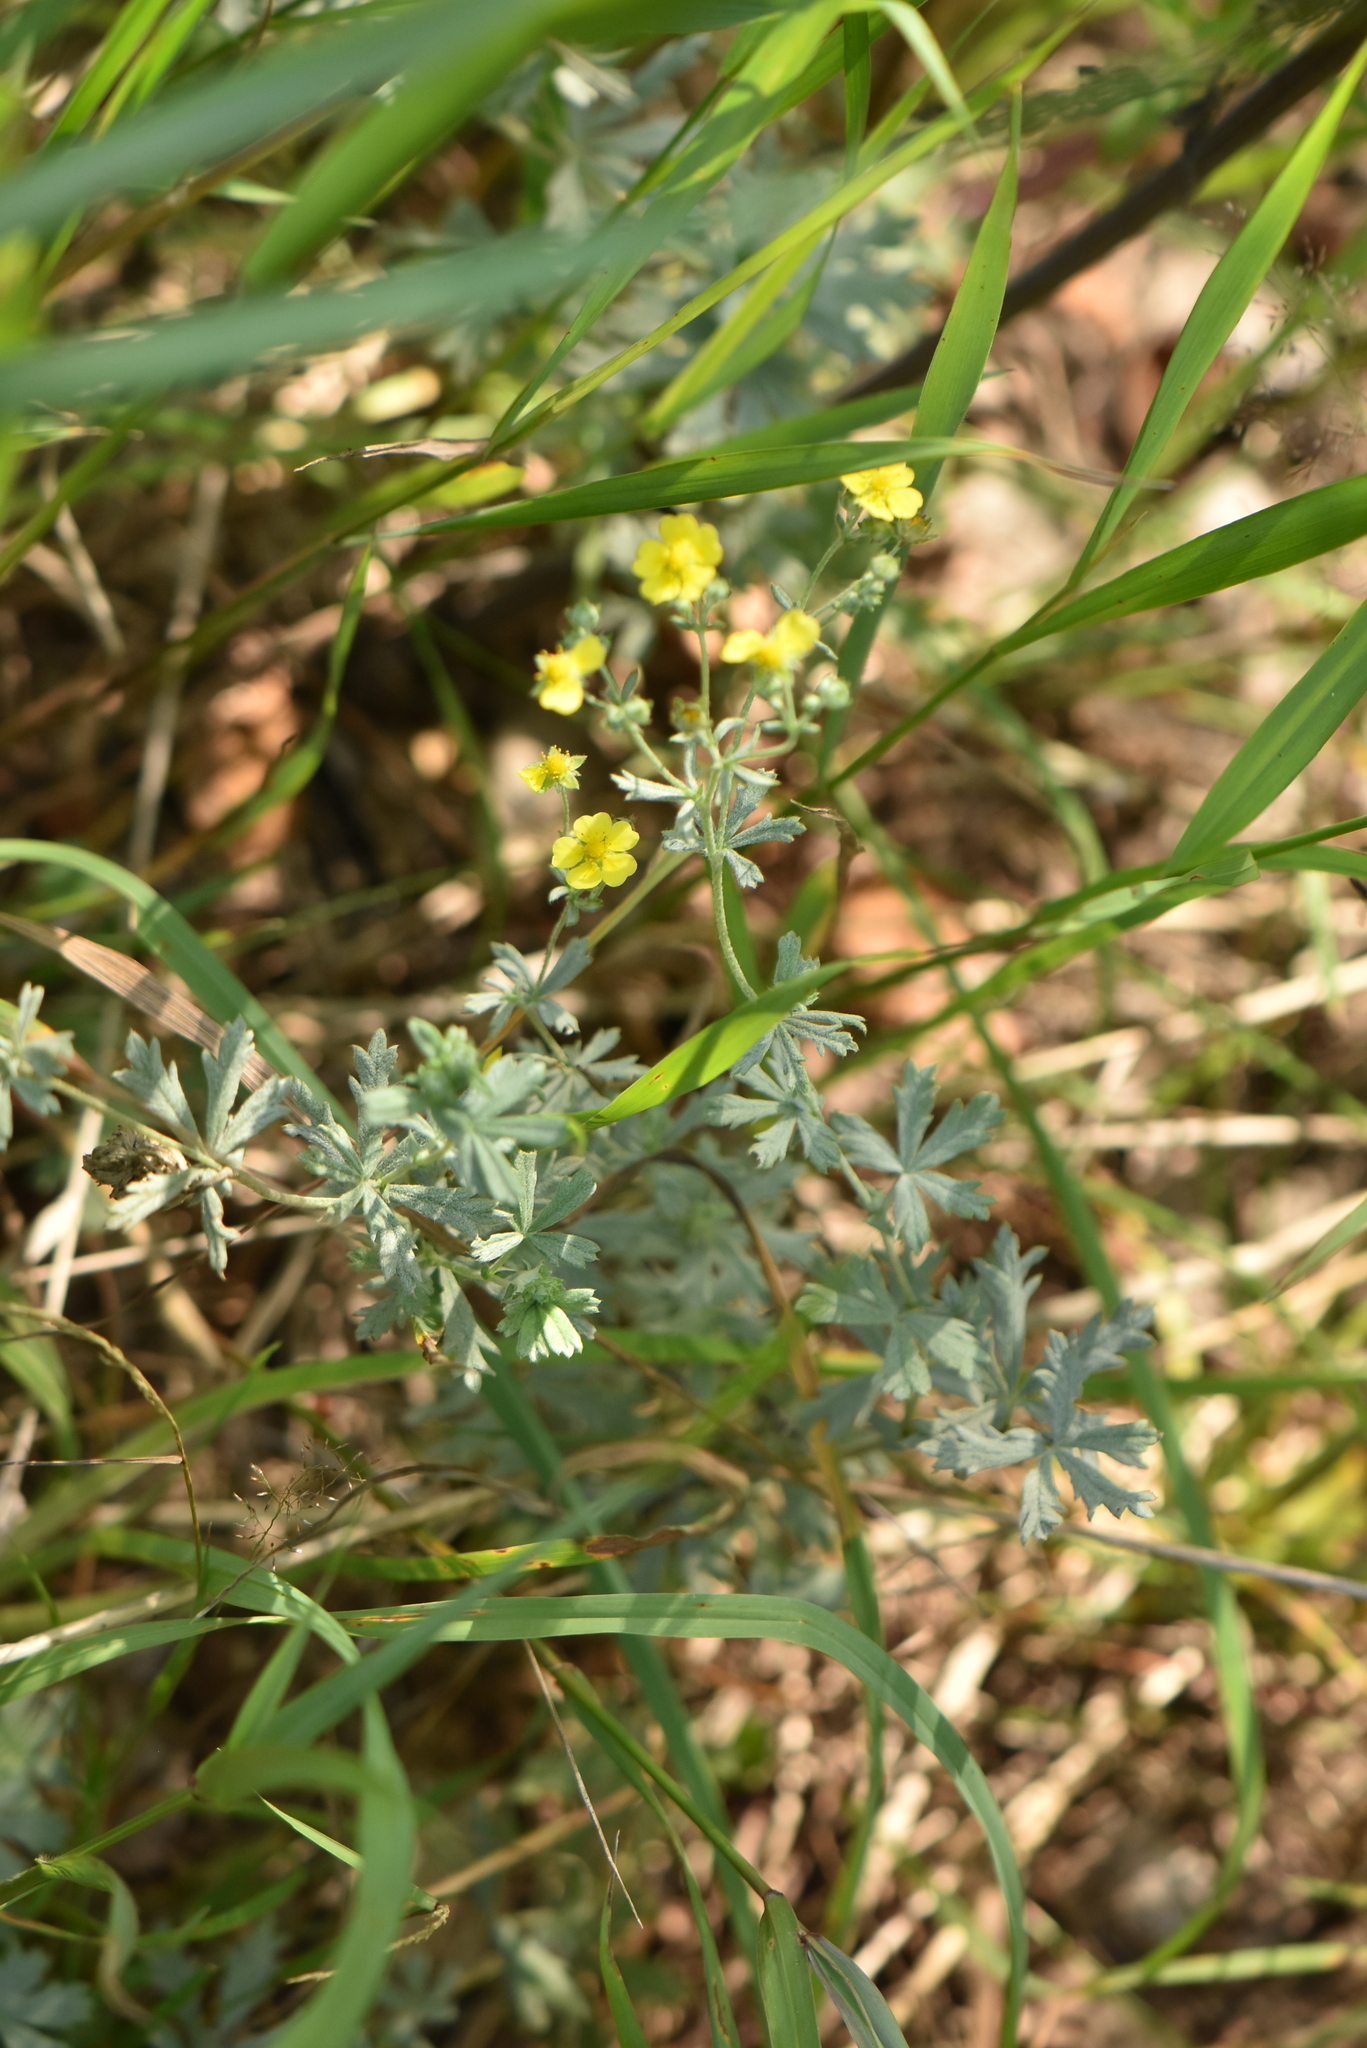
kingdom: Plantae
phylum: Tracheophyta
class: Magnoliopsida
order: Rosales
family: Rosaceae
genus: Potentilla
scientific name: Potentilla argentea
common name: Hoary cinquefoil
